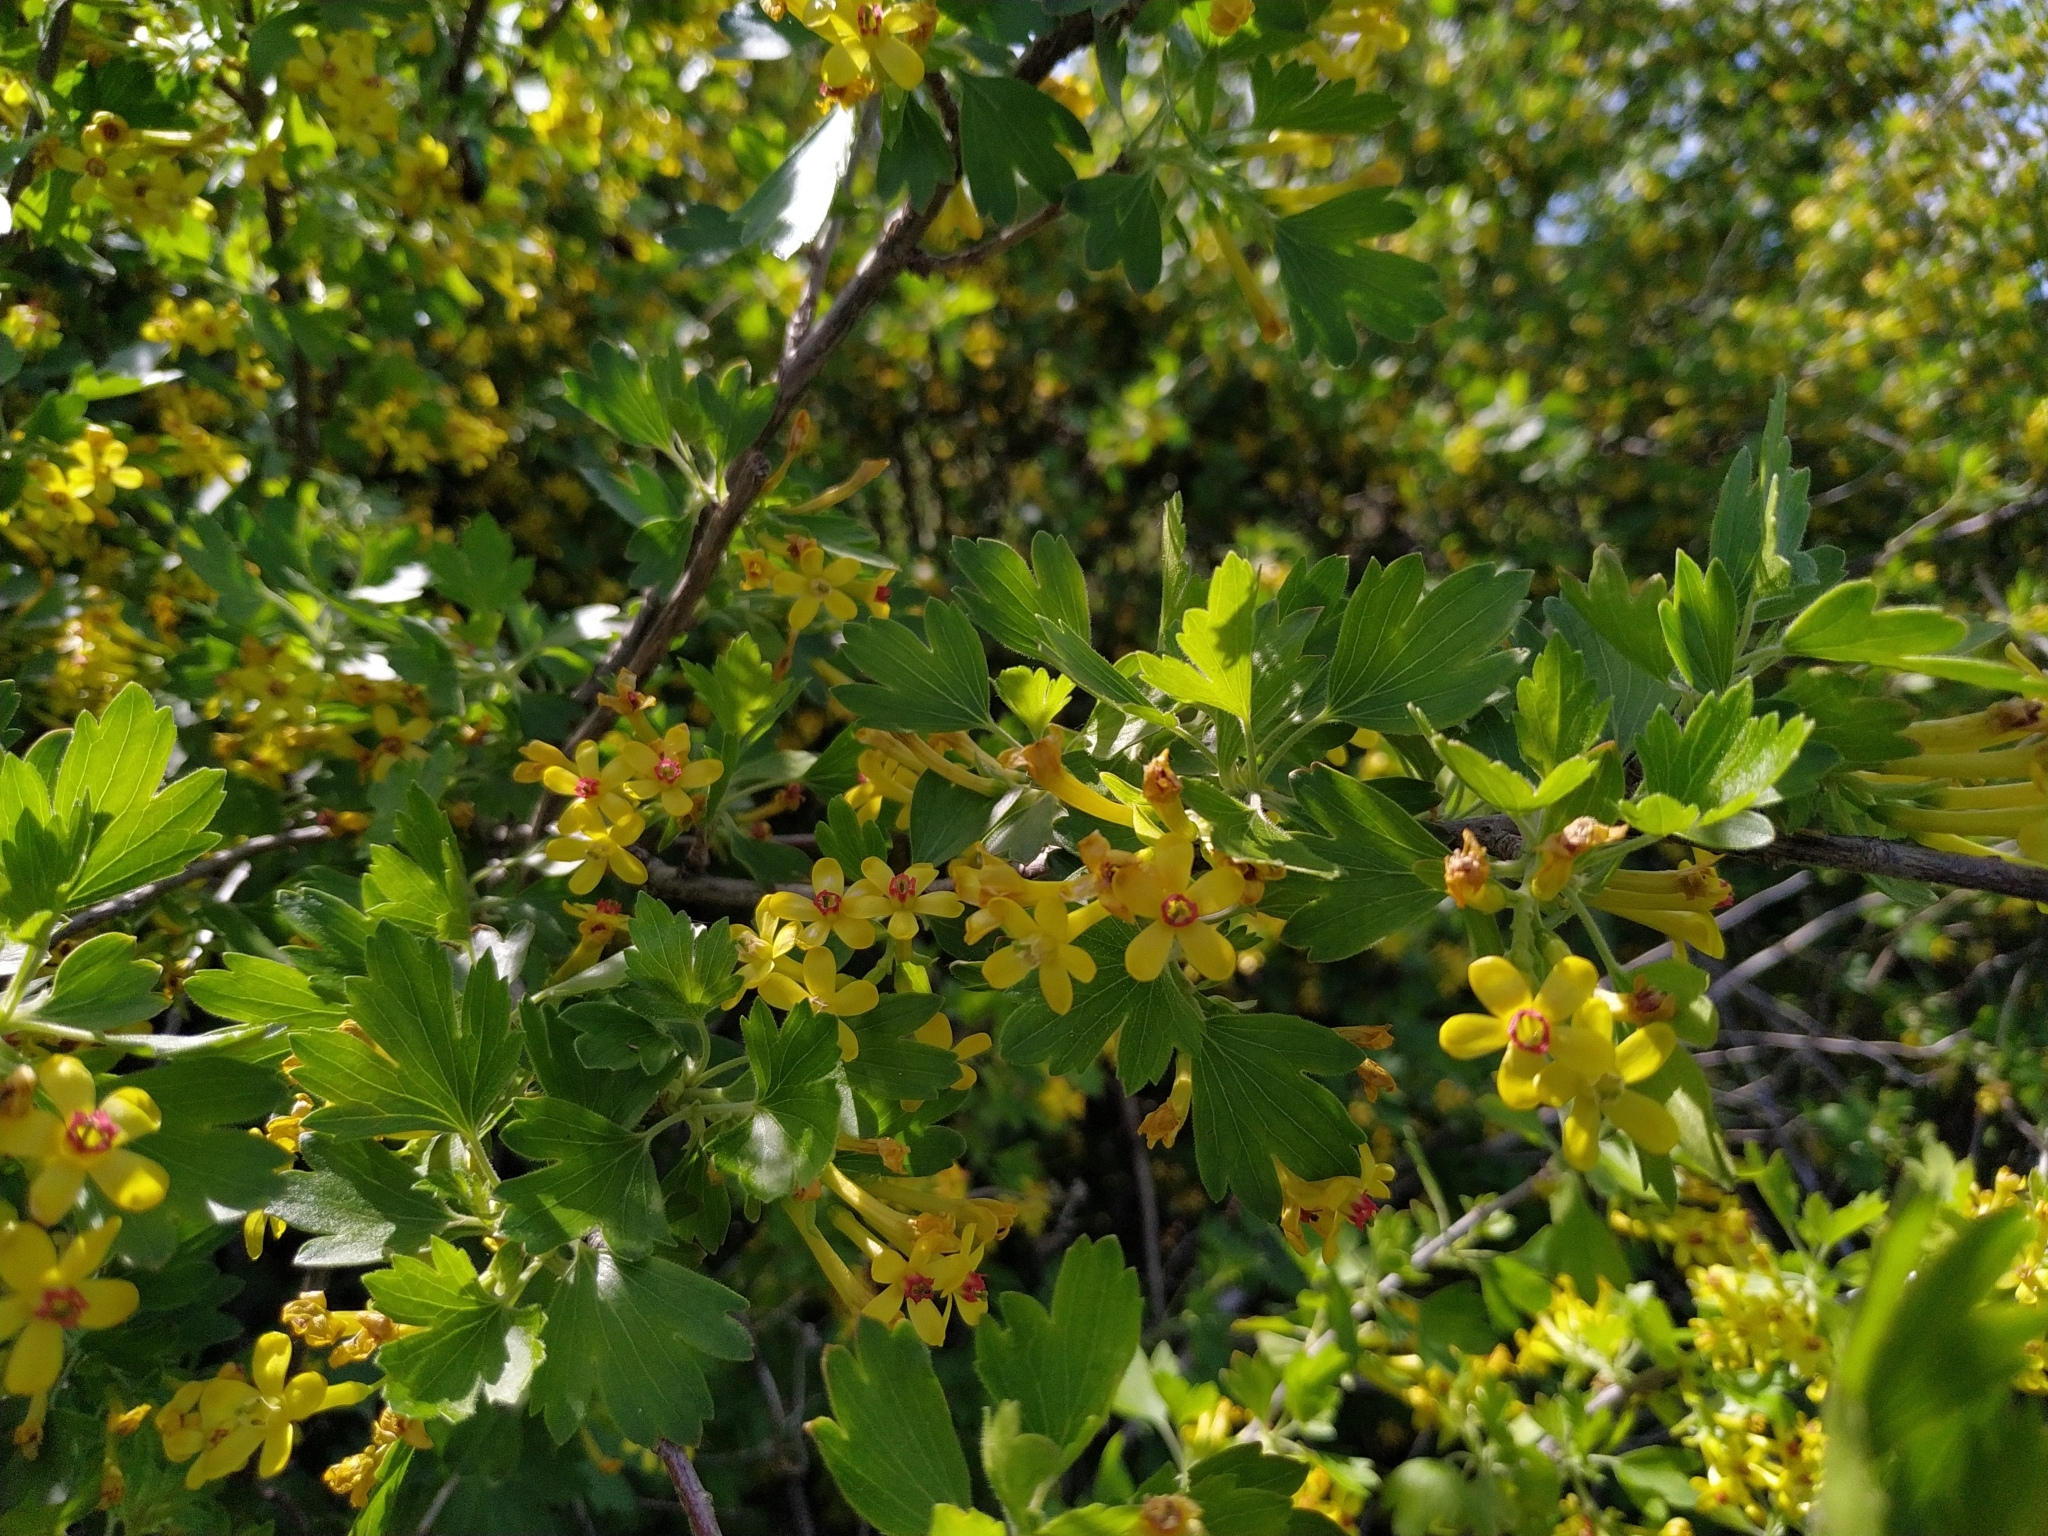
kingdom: Plantae
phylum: Tracheophyta
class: Magnoliopsida
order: Saxifragales
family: Grossulariaceae
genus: Ribes
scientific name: Ribes aureum
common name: Golden currant
